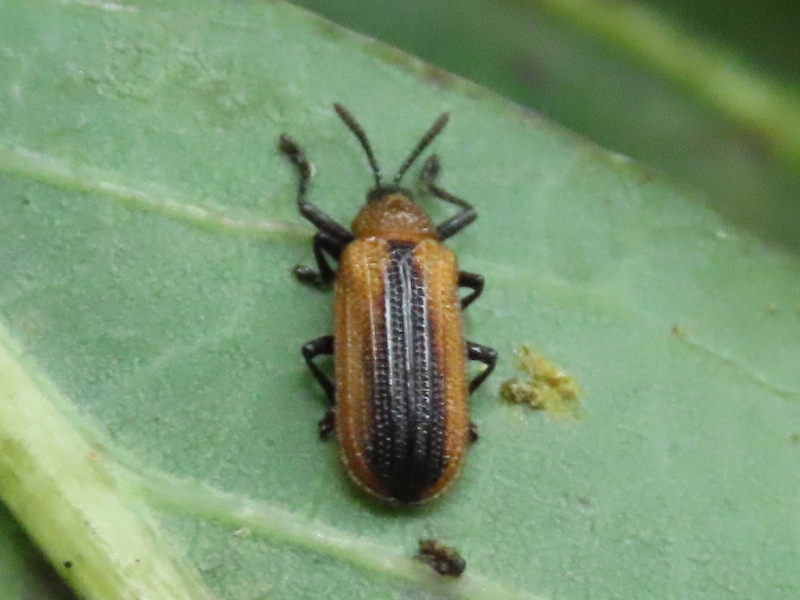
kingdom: Animalia
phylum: Arthropoda
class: Insecta
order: Coleoptera
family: Chrysomelidae
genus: Odontota
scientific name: Odontota dorsalis
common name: Locust leaf-miner beetle
